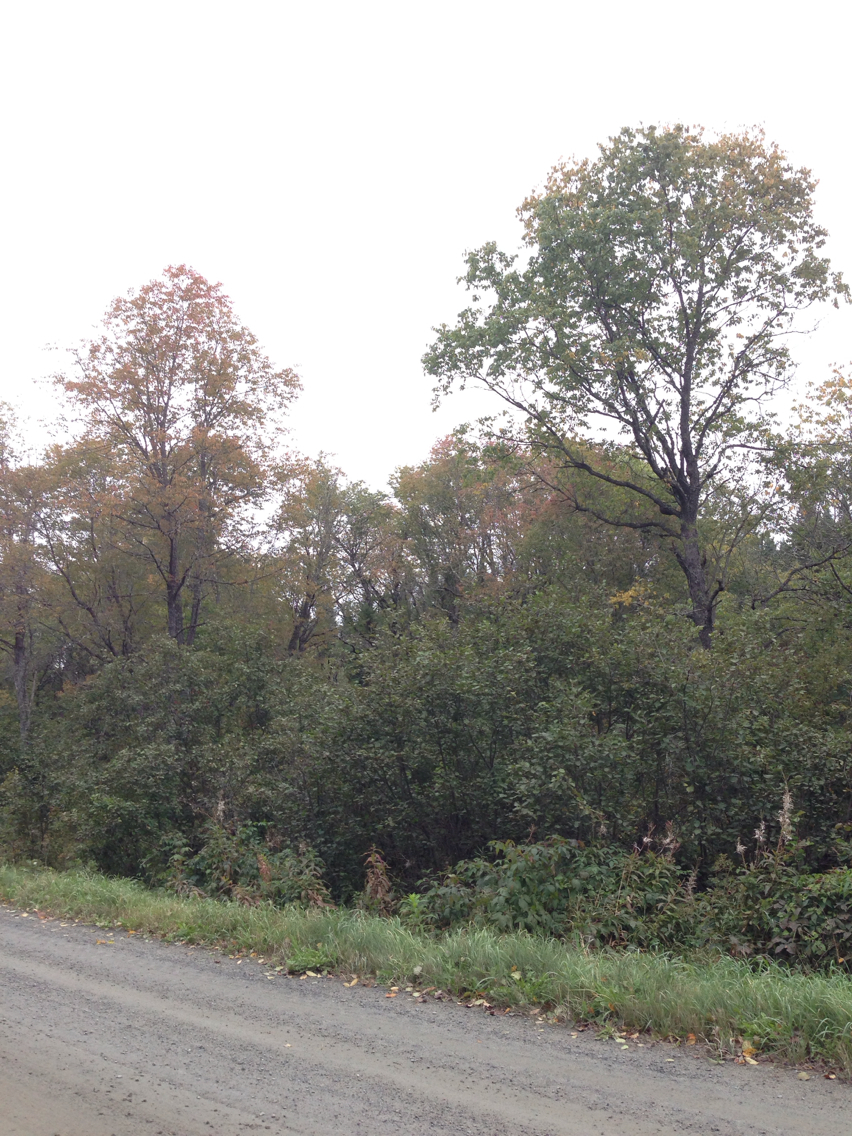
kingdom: Plantae
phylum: Tracheophyta
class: Magnoliopsida
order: Rosales
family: Rosaceae
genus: Prunus
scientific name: Prunus serotina
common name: Black cherry
